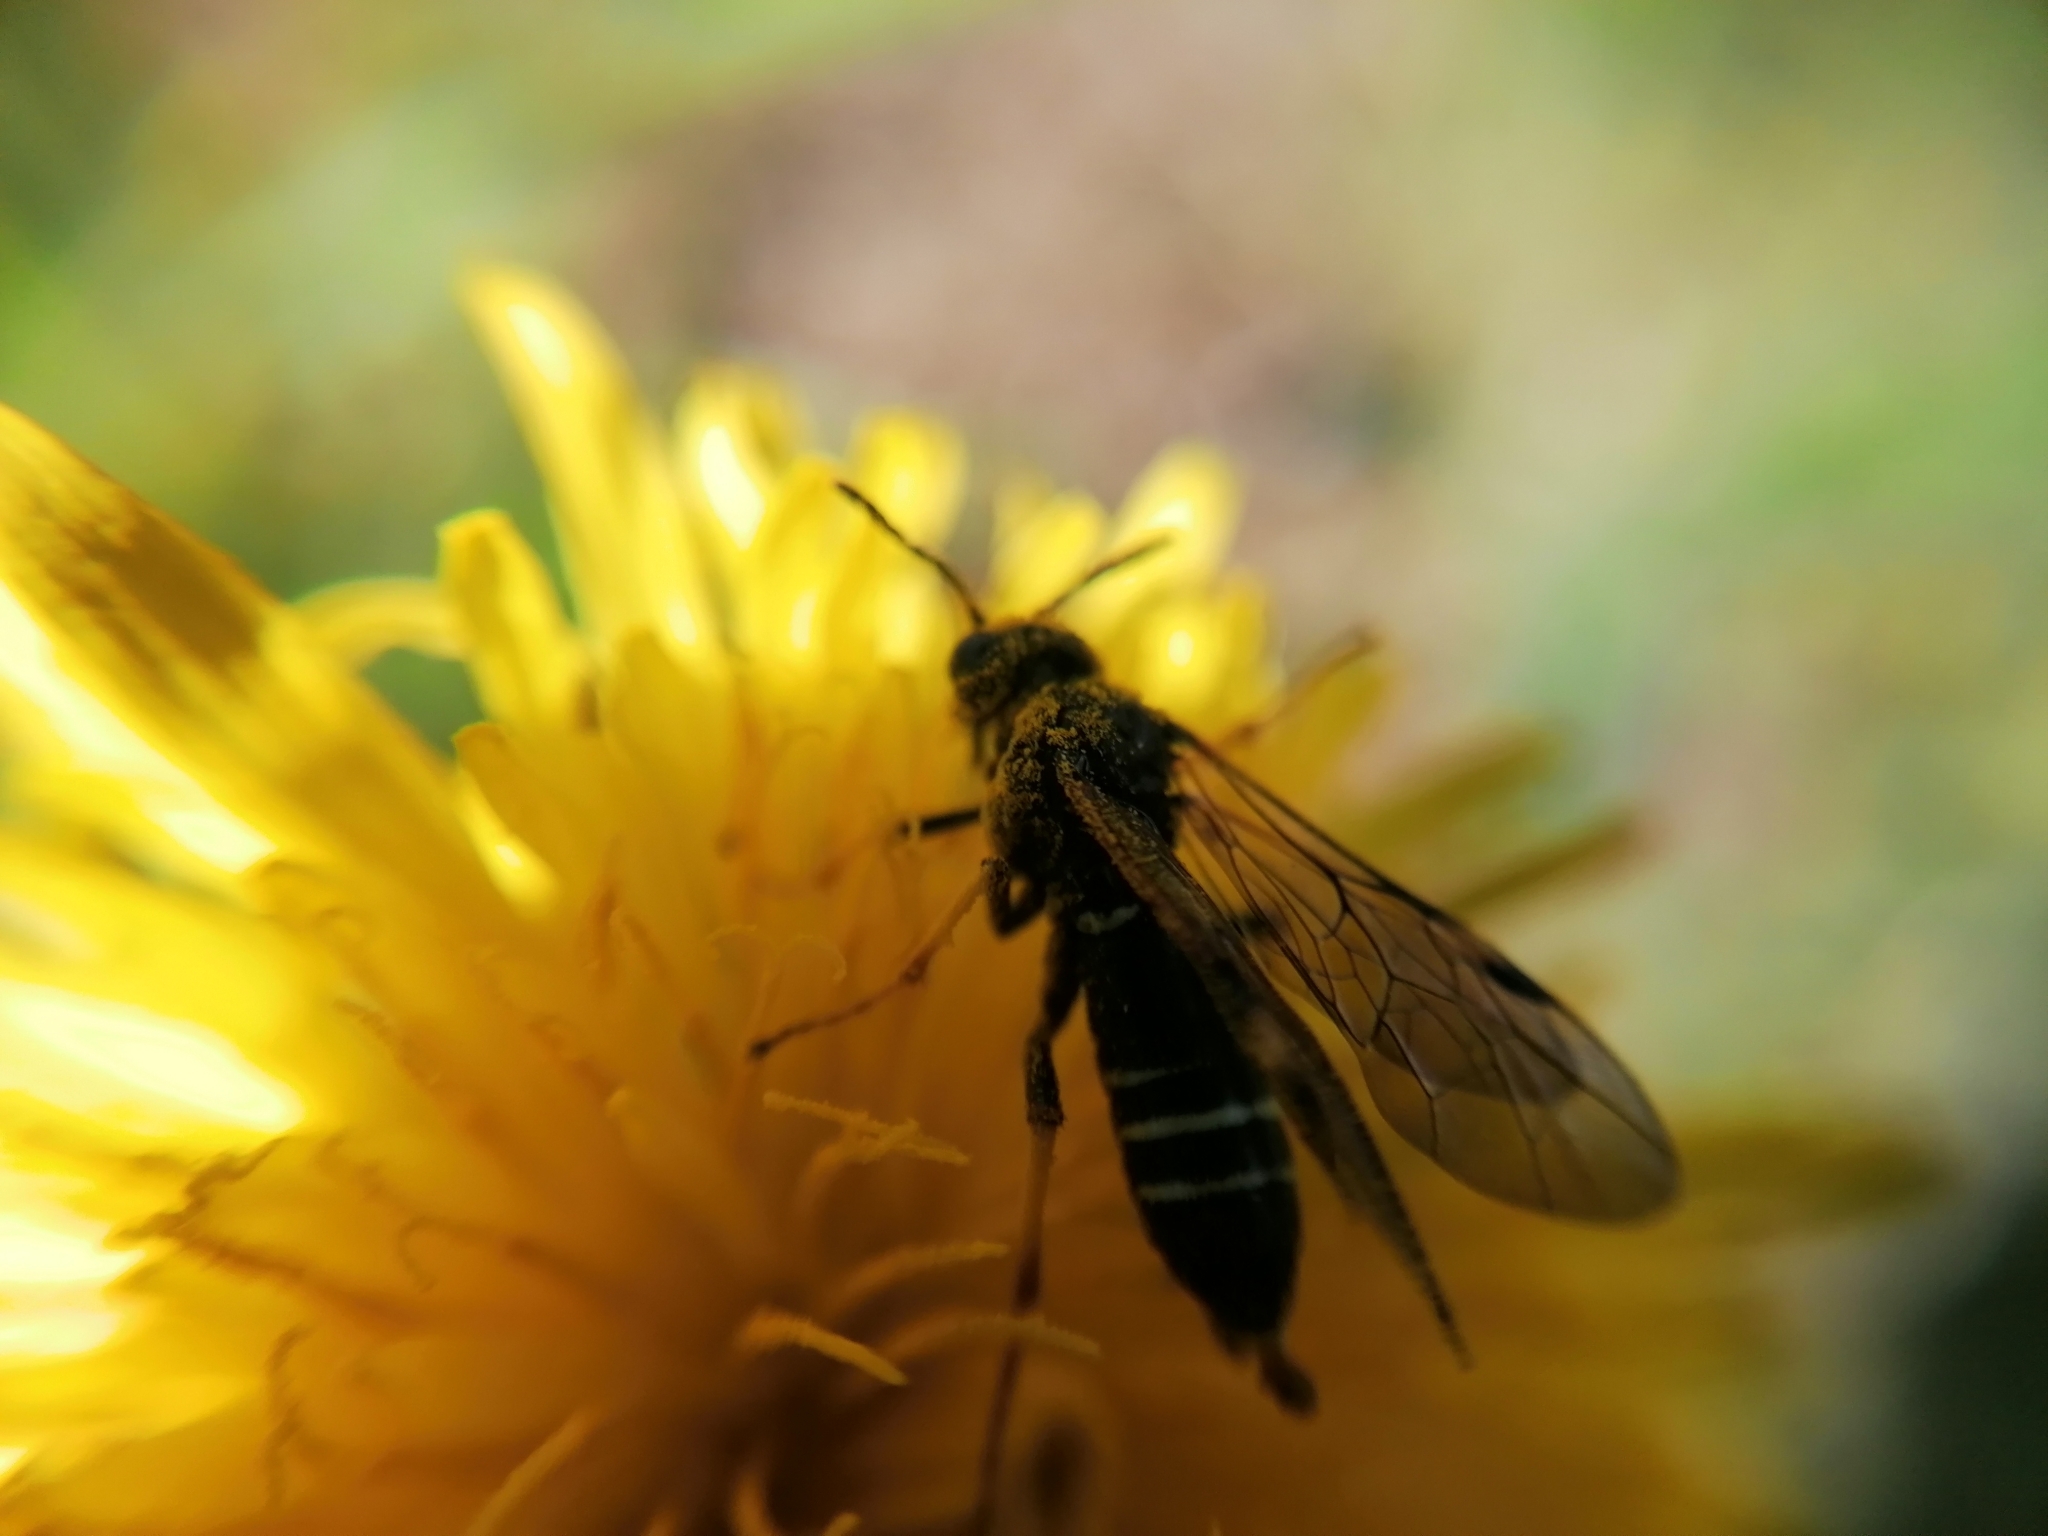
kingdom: Animalia
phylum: Arthropoda
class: Insecta
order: Hymenoptera
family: Tenthredinidae
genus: Tenthredo
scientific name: Tenthredo koehleri
